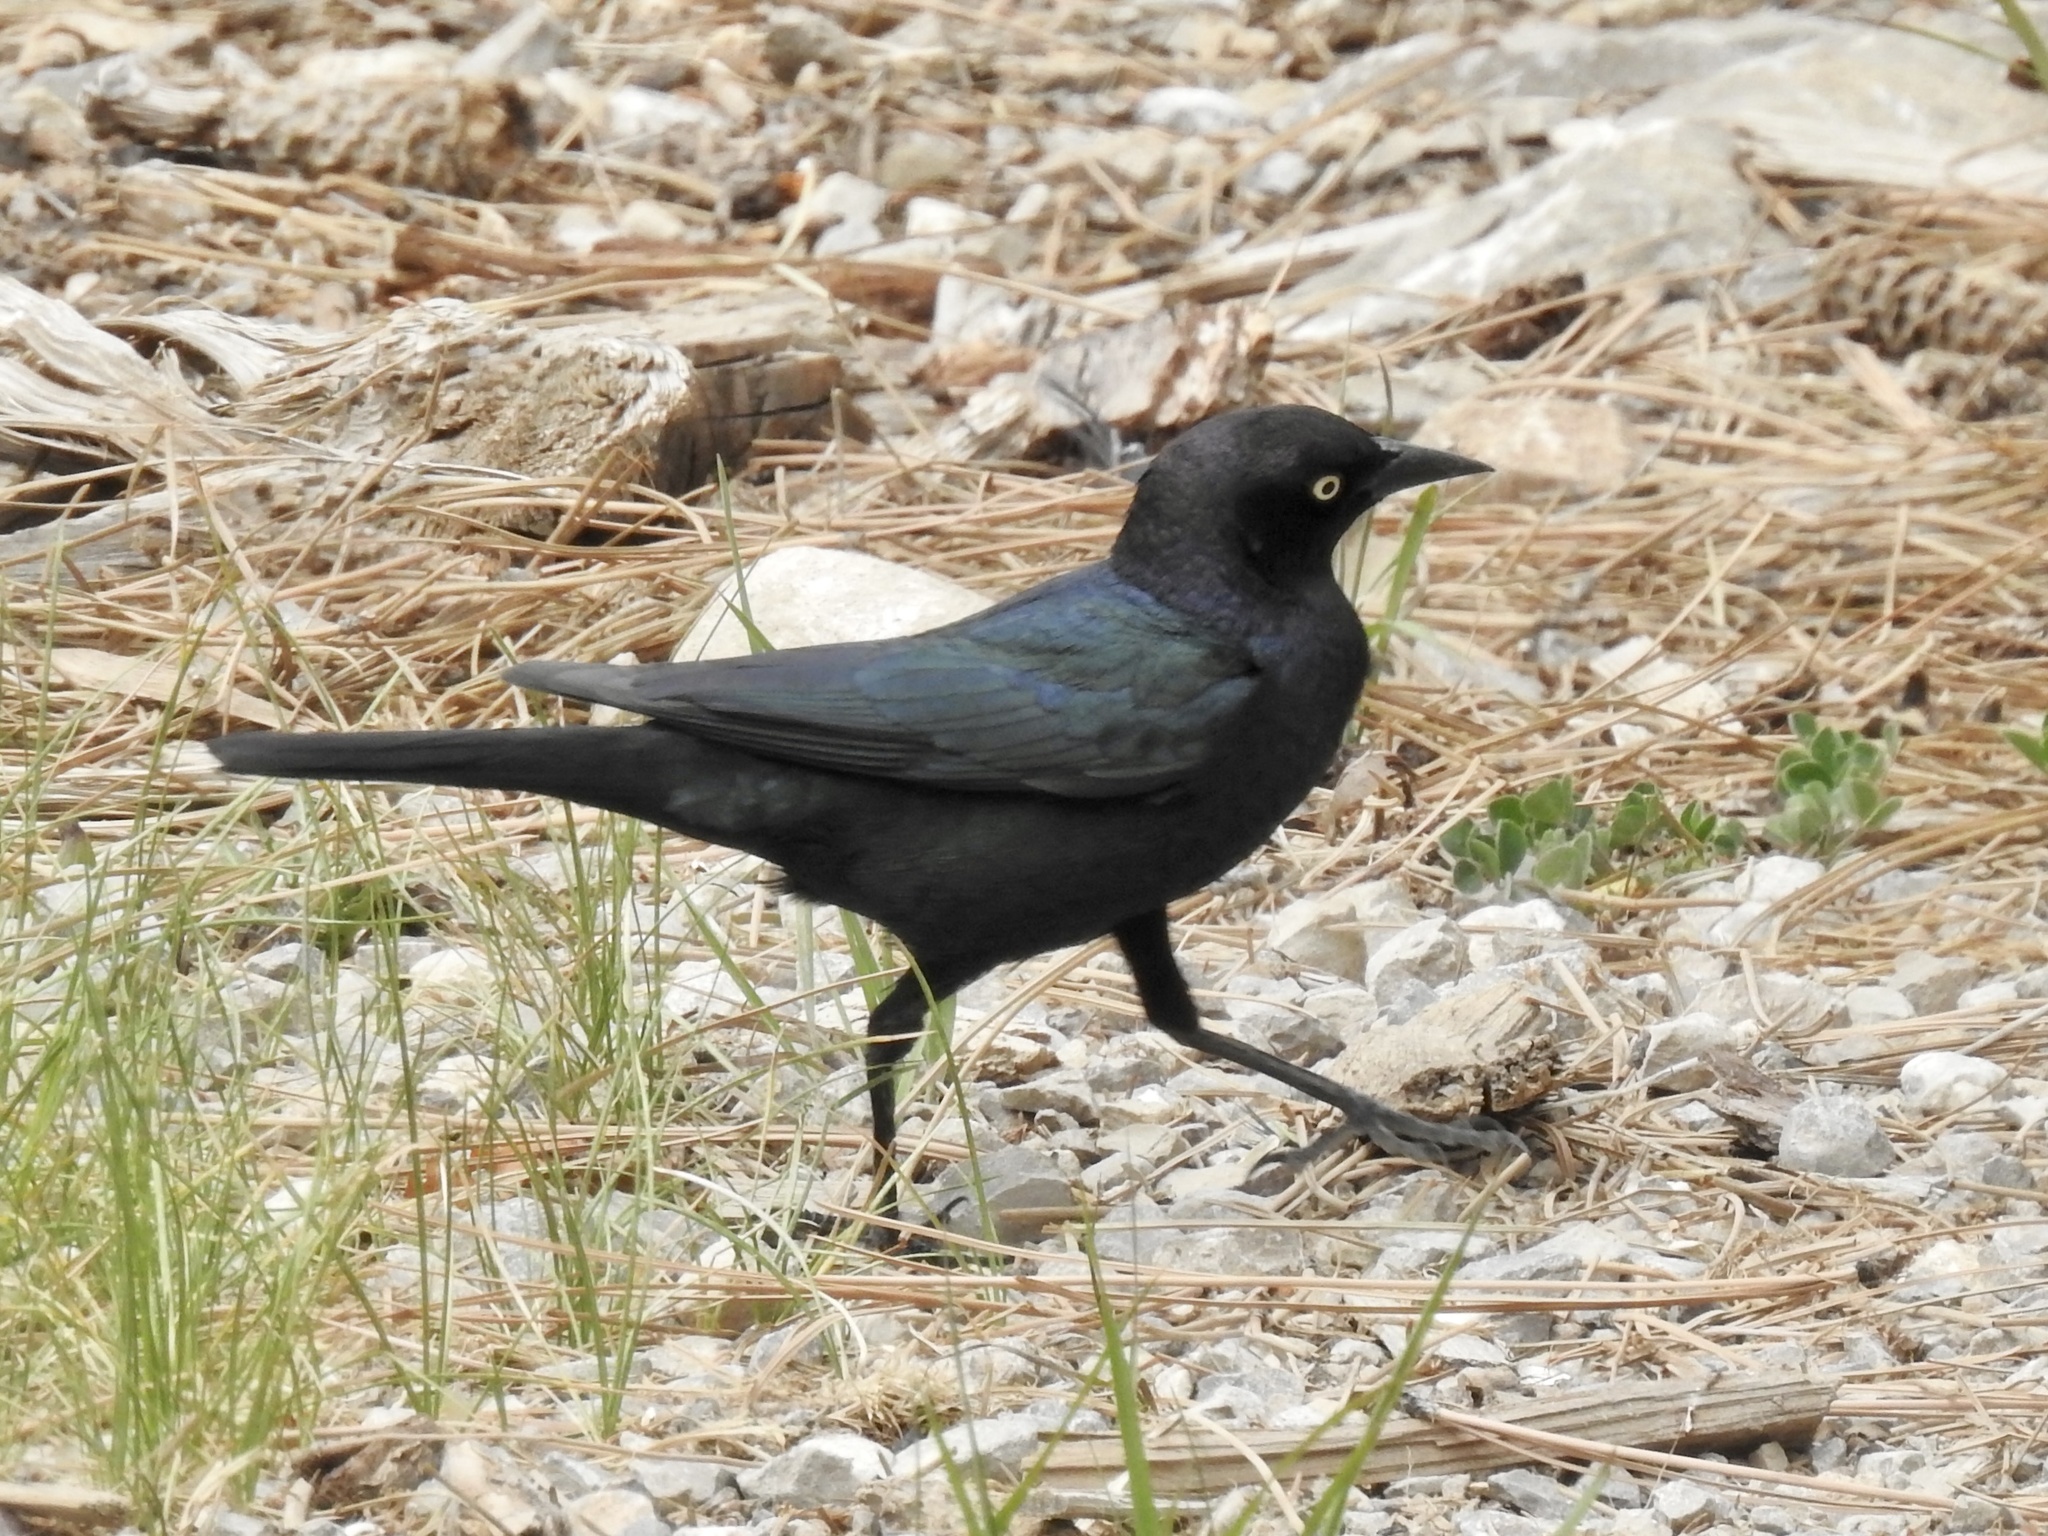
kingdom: Animalia
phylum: Chordata
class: Aves
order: Passeriformes
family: Icteridae
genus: Euphagus
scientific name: Euphagus cyanocephalus
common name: Brewer's blackbird
